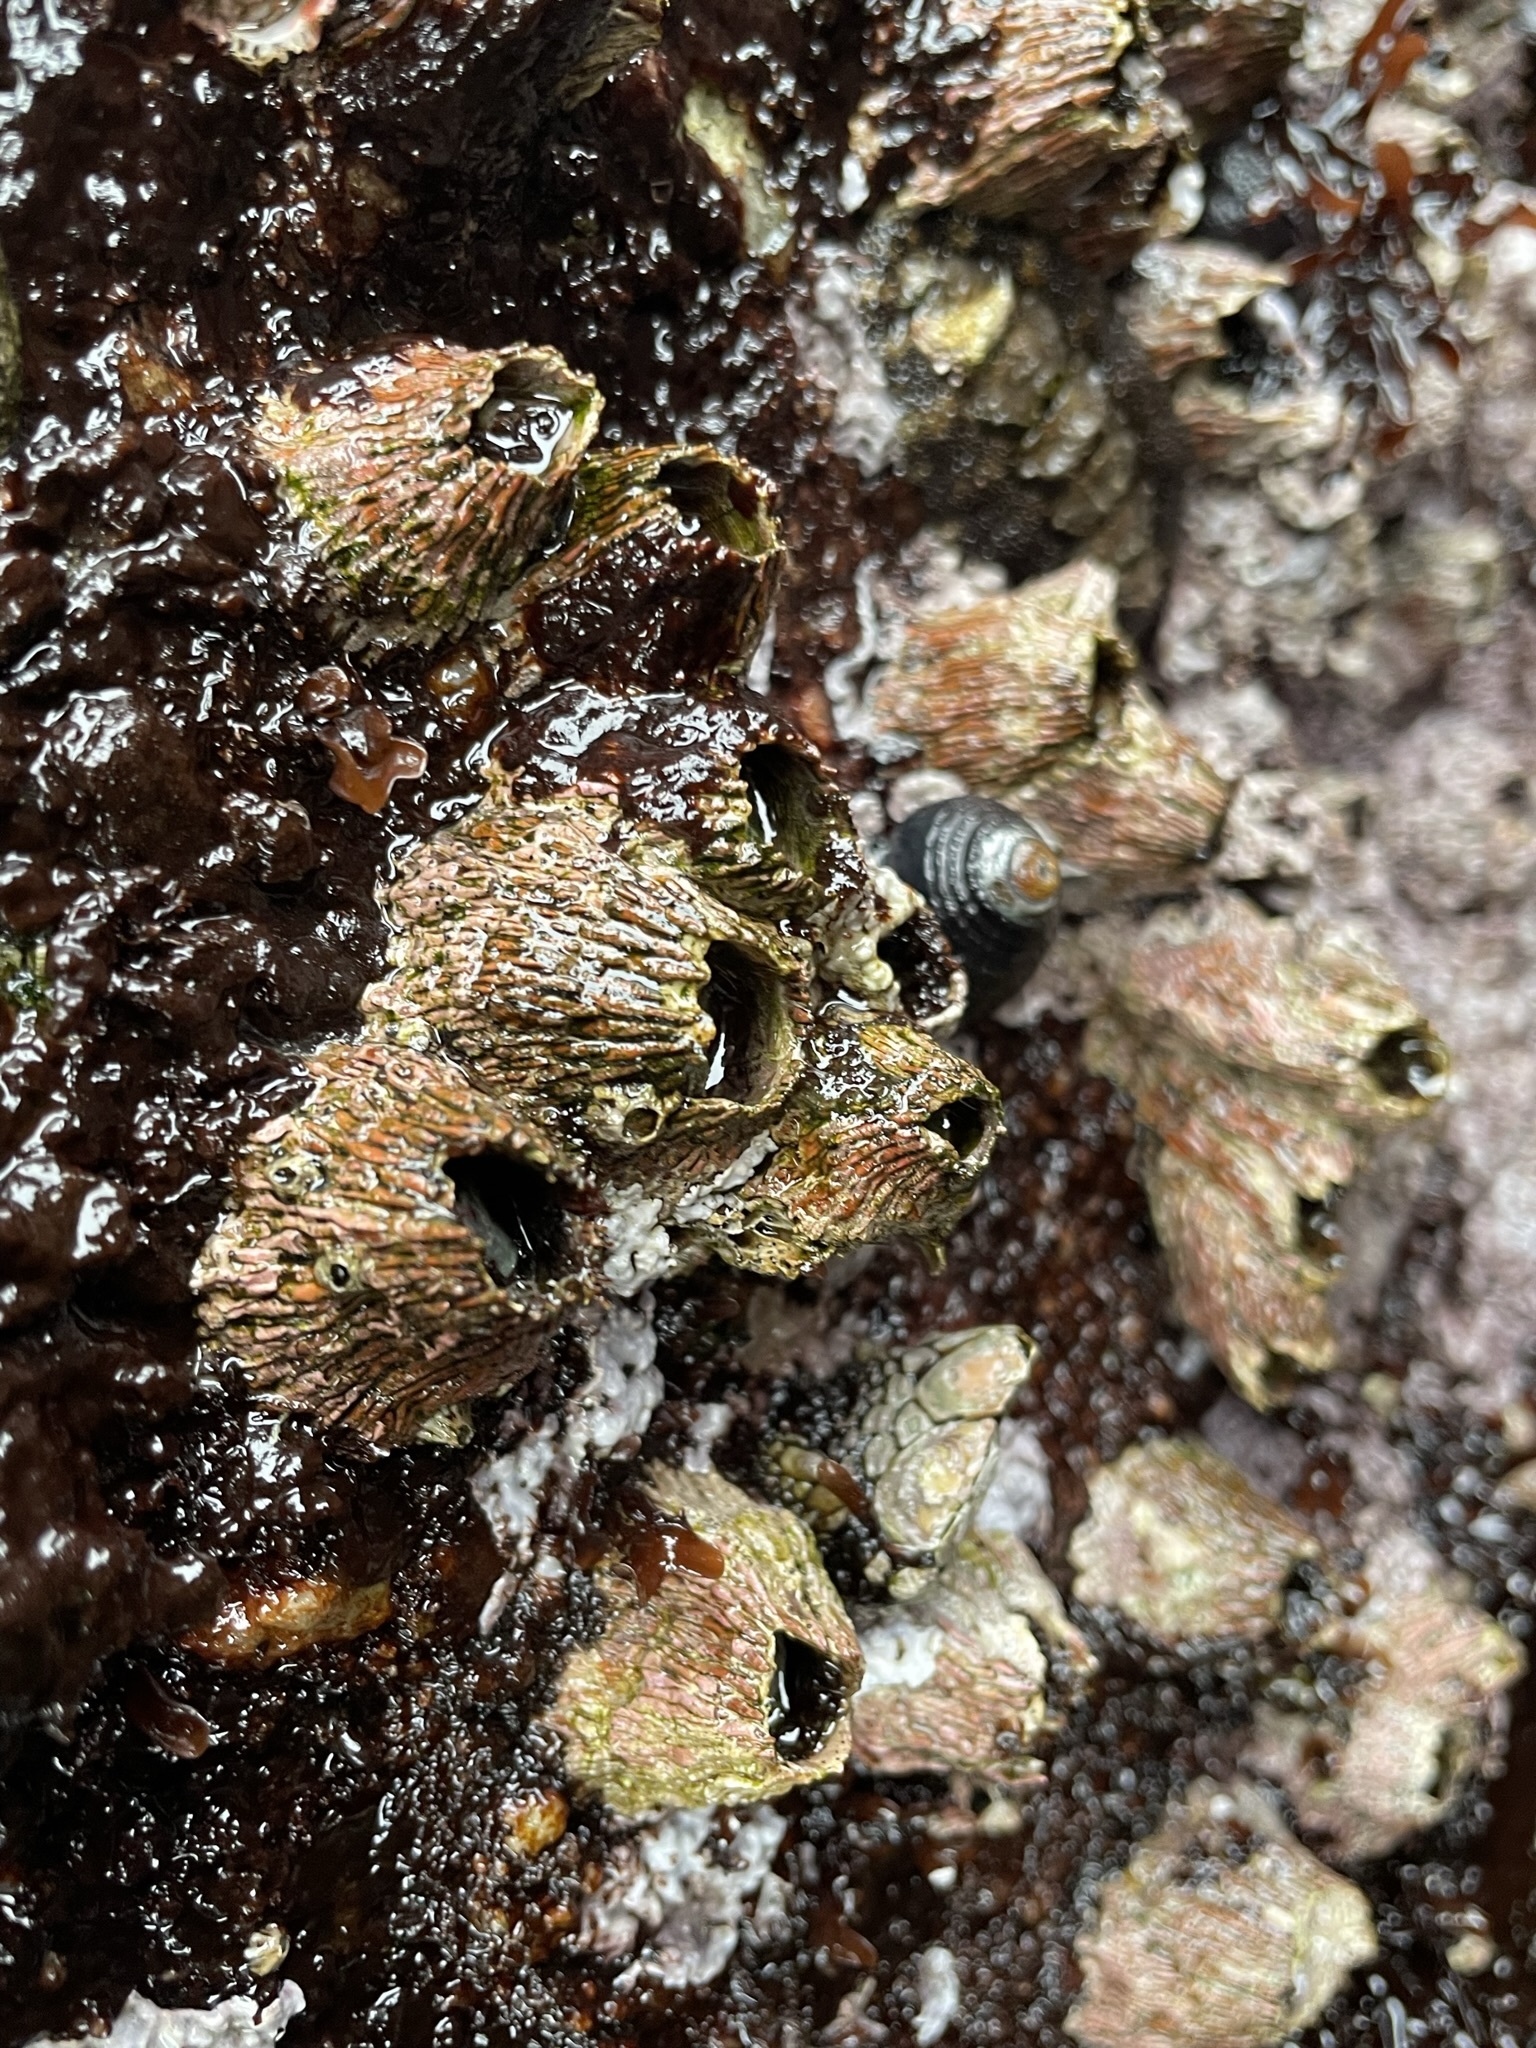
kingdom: Animalia
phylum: Arthropoda
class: Maxillopoda
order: Sessilia
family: Tetraclitidae
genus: Tetraclita
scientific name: Tetraclita rubescens
